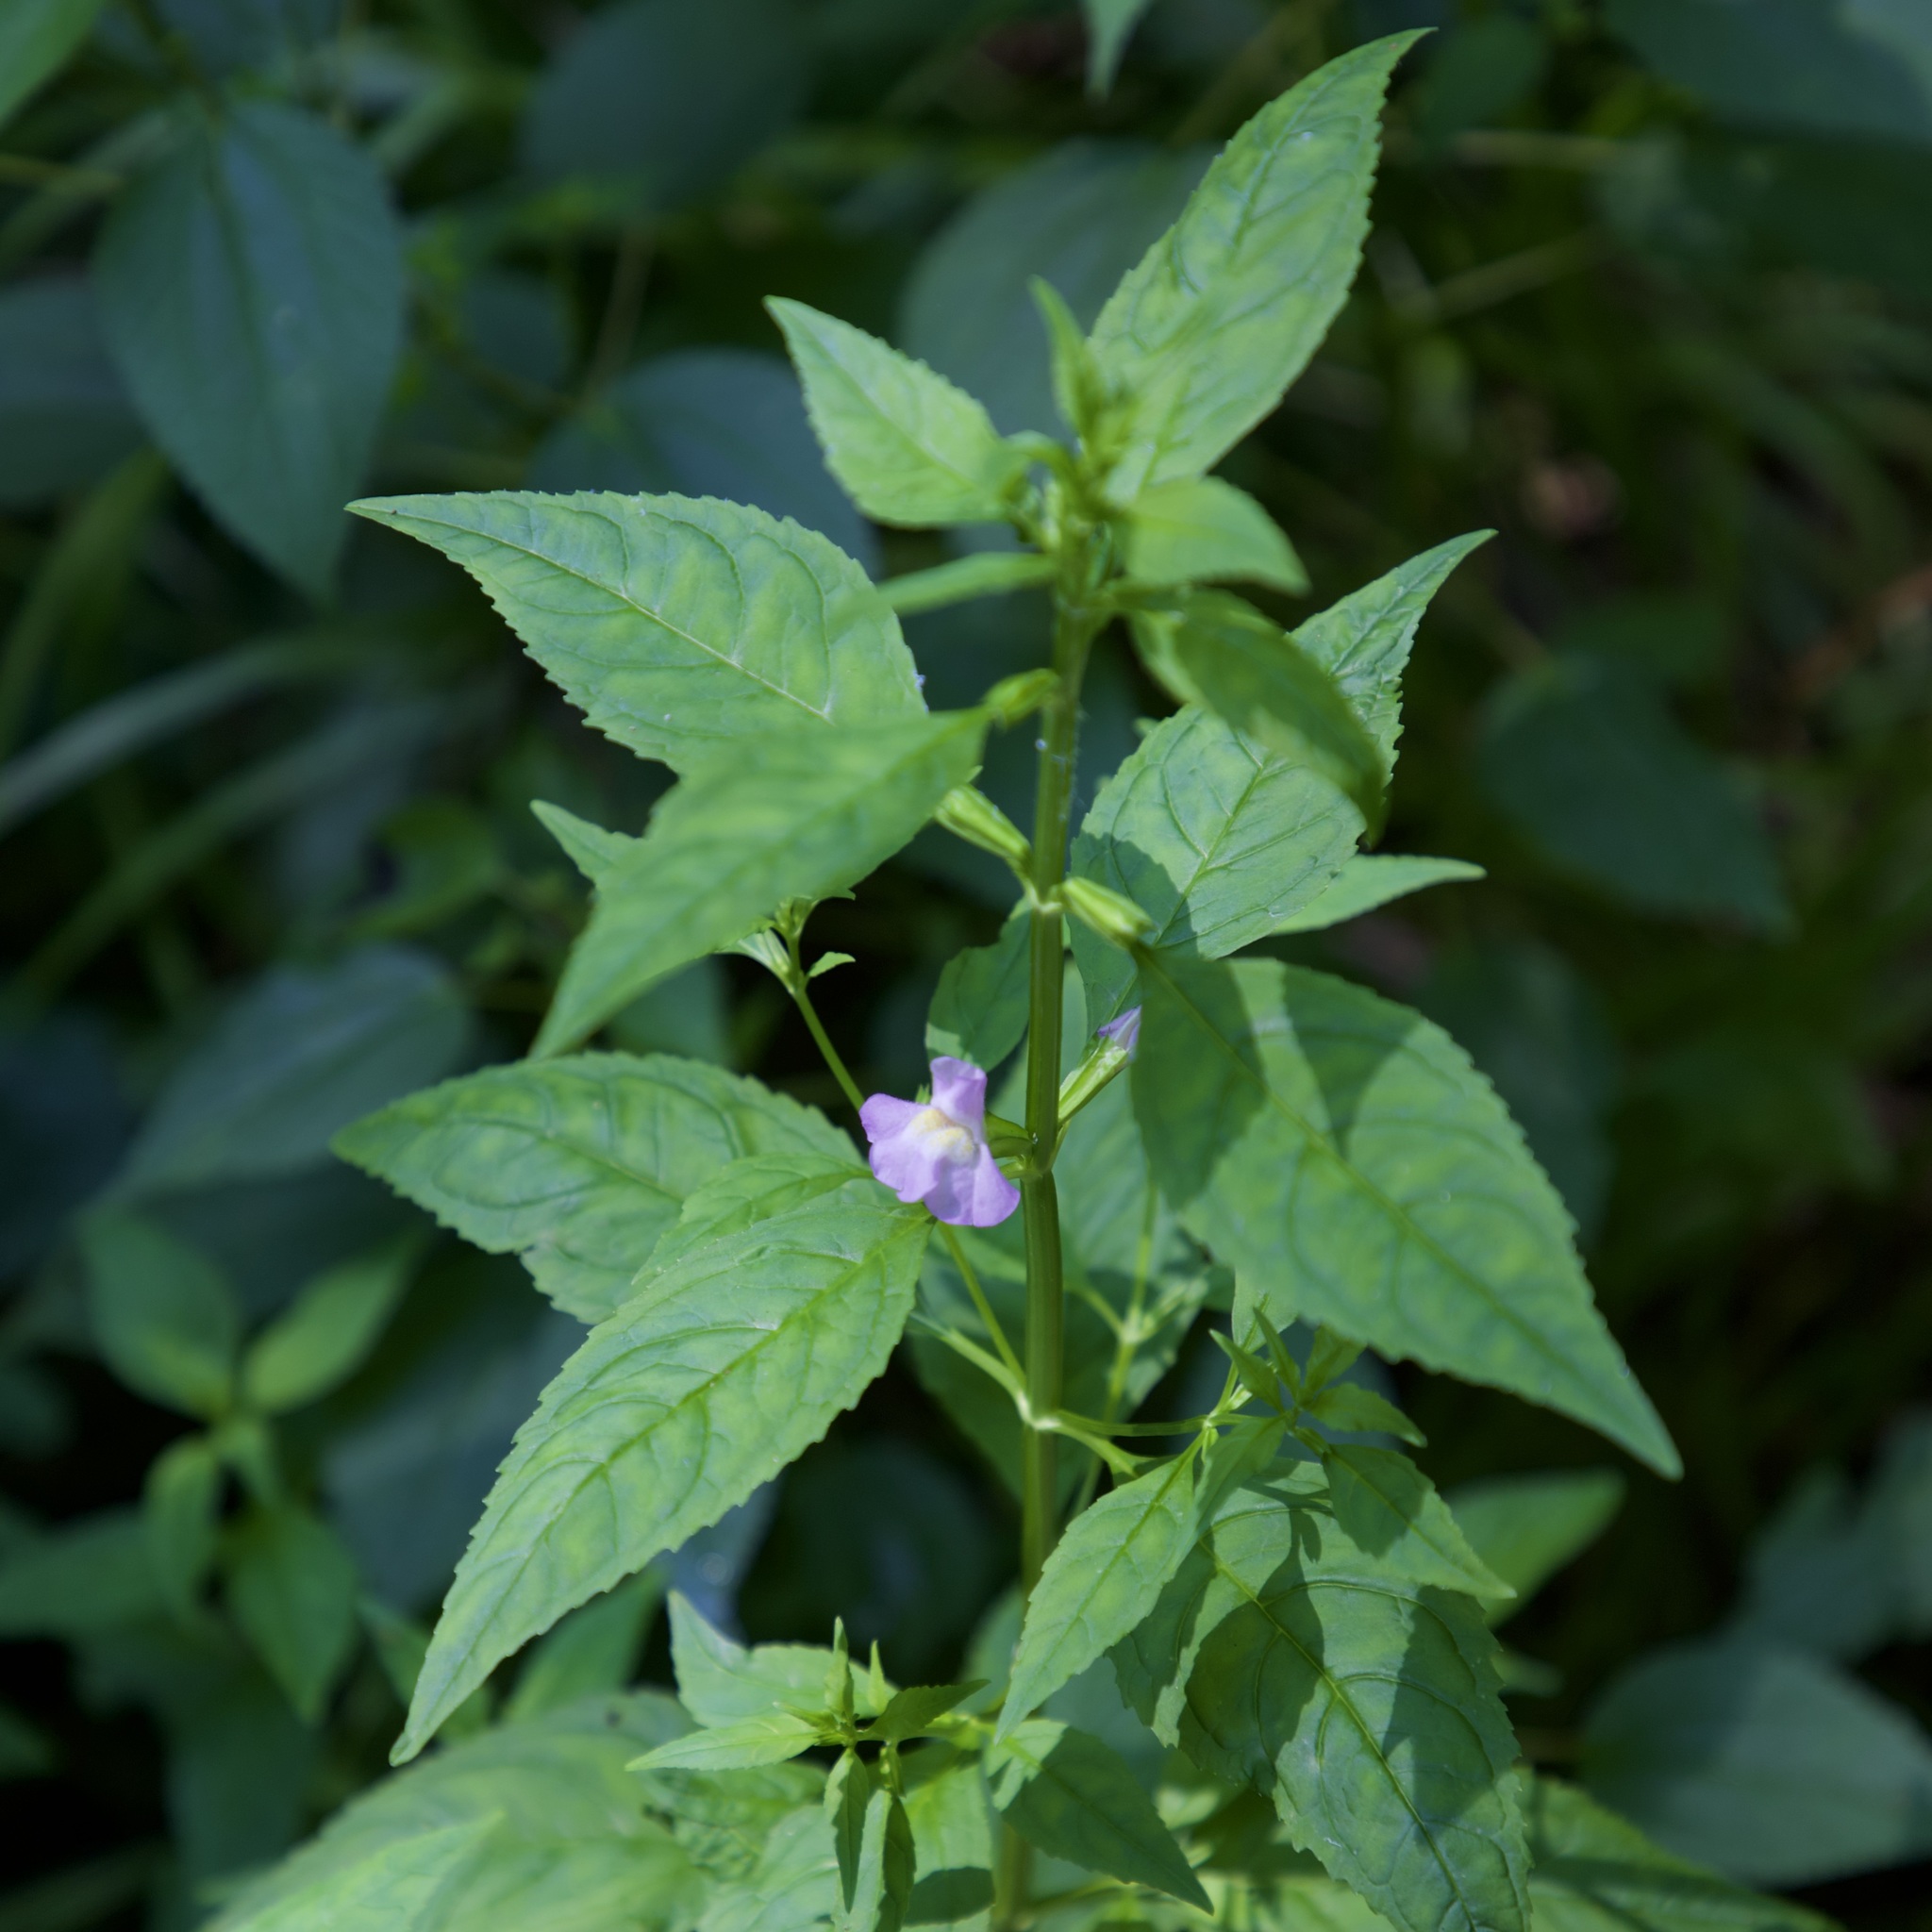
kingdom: Plantae
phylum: Tracheophyta
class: Magnoliopsida
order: Lamiales
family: Phrymaceae
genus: Mimulus
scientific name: Mimulus alatus
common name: Sharp-wing monkey-flower
